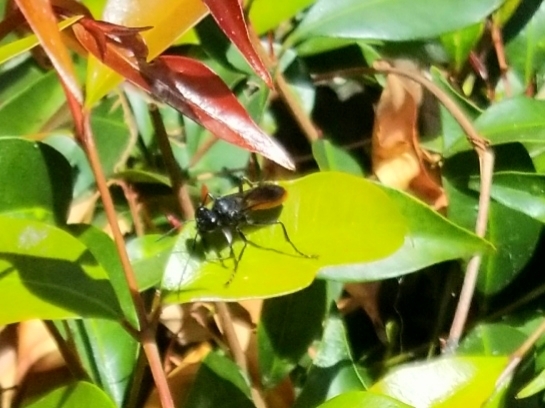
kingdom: Animalia
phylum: Arthropoda
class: Insecta
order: Hymenoptera
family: Sphecidae
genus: Sphex
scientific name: Sphex lucae
